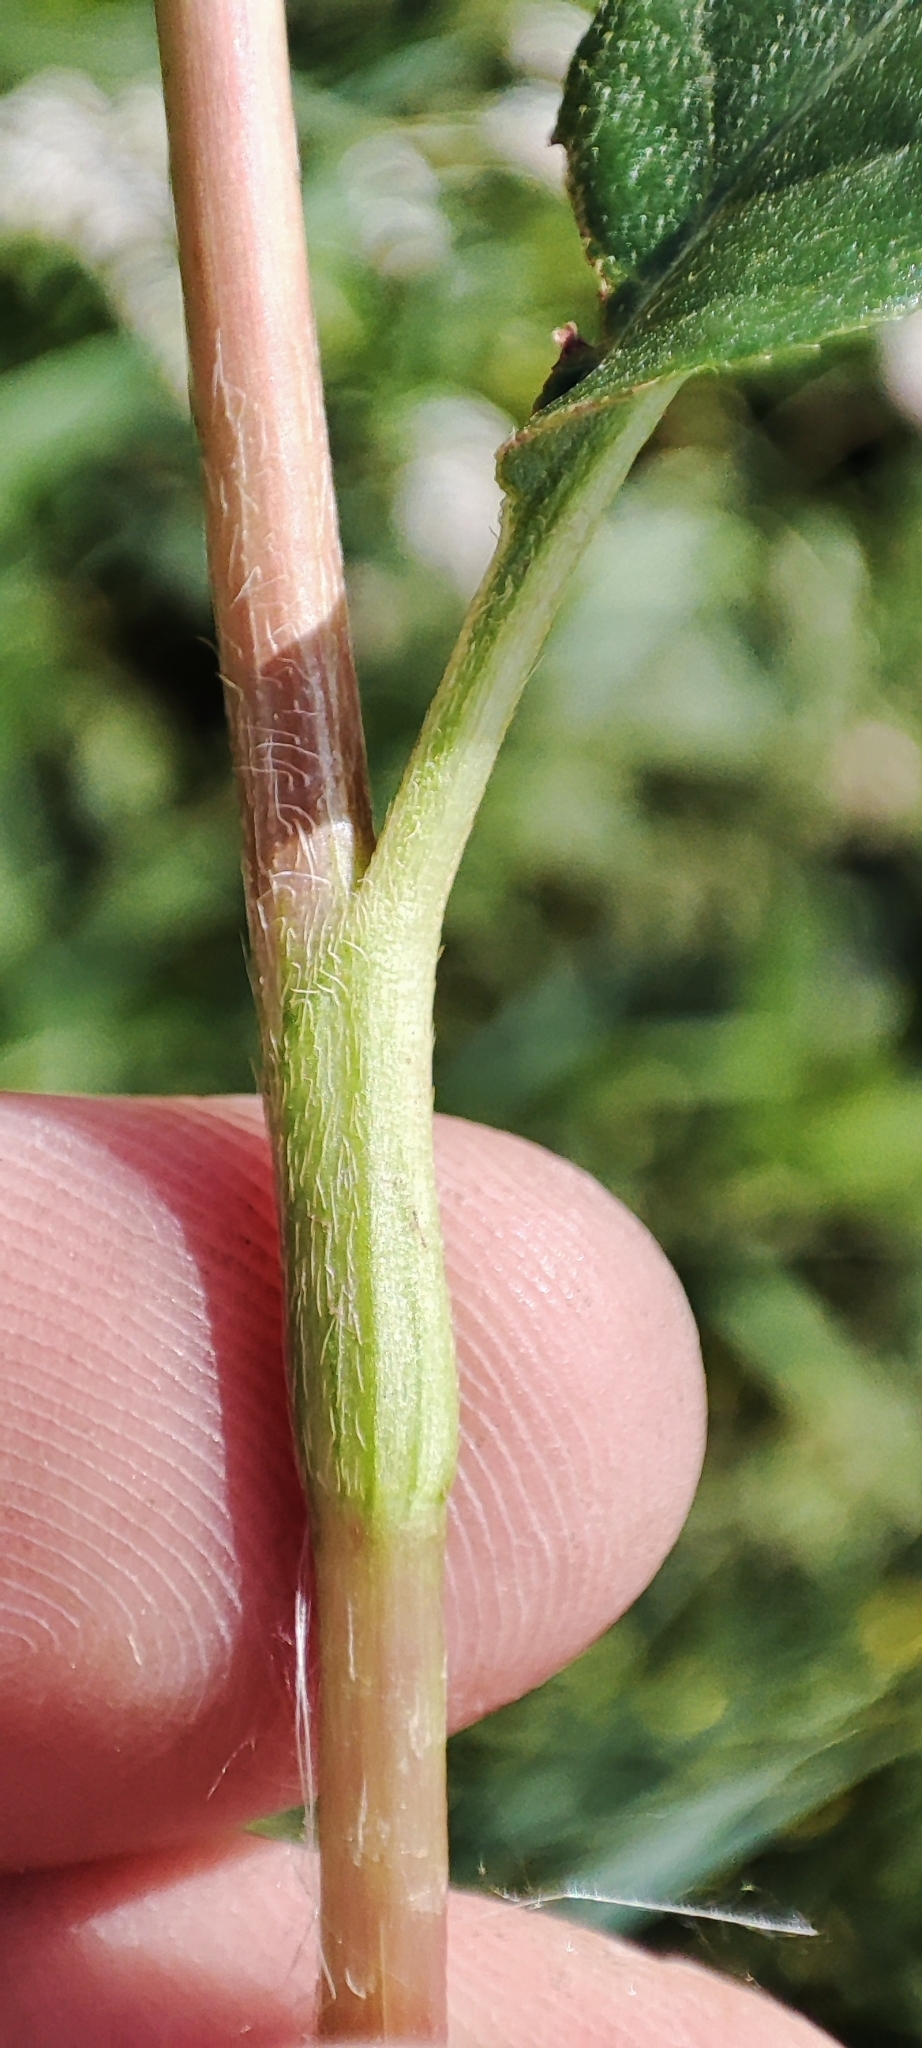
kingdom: Plantae
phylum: Tracheophyta
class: Magnoliopsida
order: Caryophyllales
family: Polygonaceae
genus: Persicaria
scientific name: Persicaria amphibia
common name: Amphibious bistort
